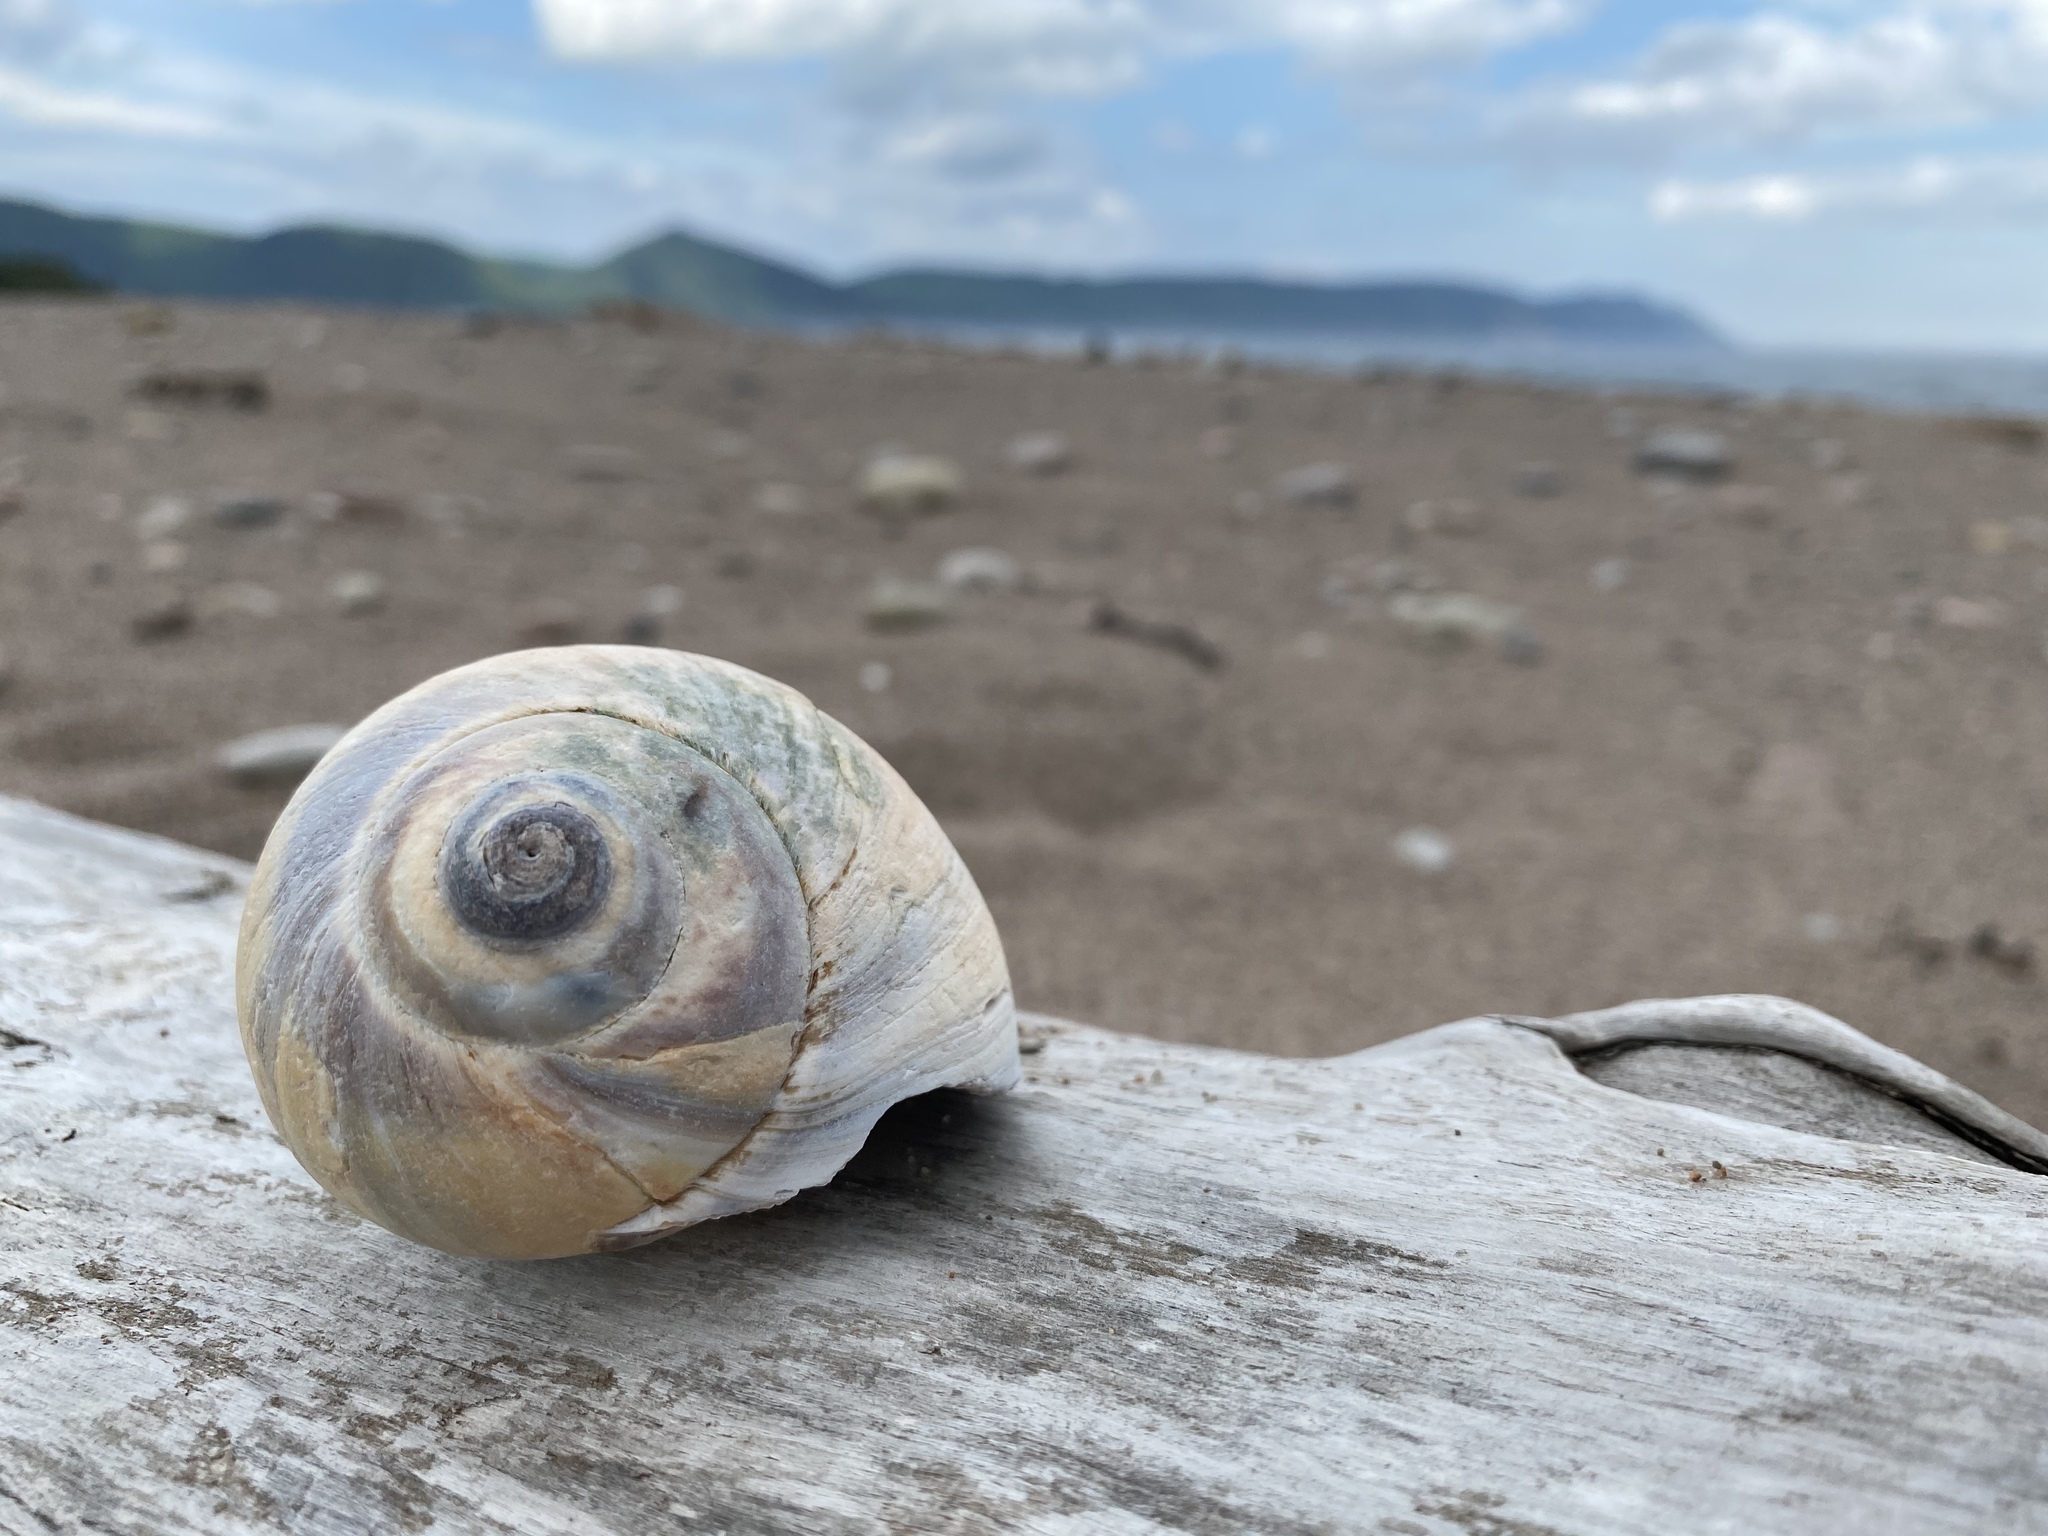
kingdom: Animalia
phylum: Mollusca
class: Gastropoda
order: Littorinimorpha
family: Naticidae
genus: Euspira
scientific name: Euspira heros
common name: Common northern moonsnail
